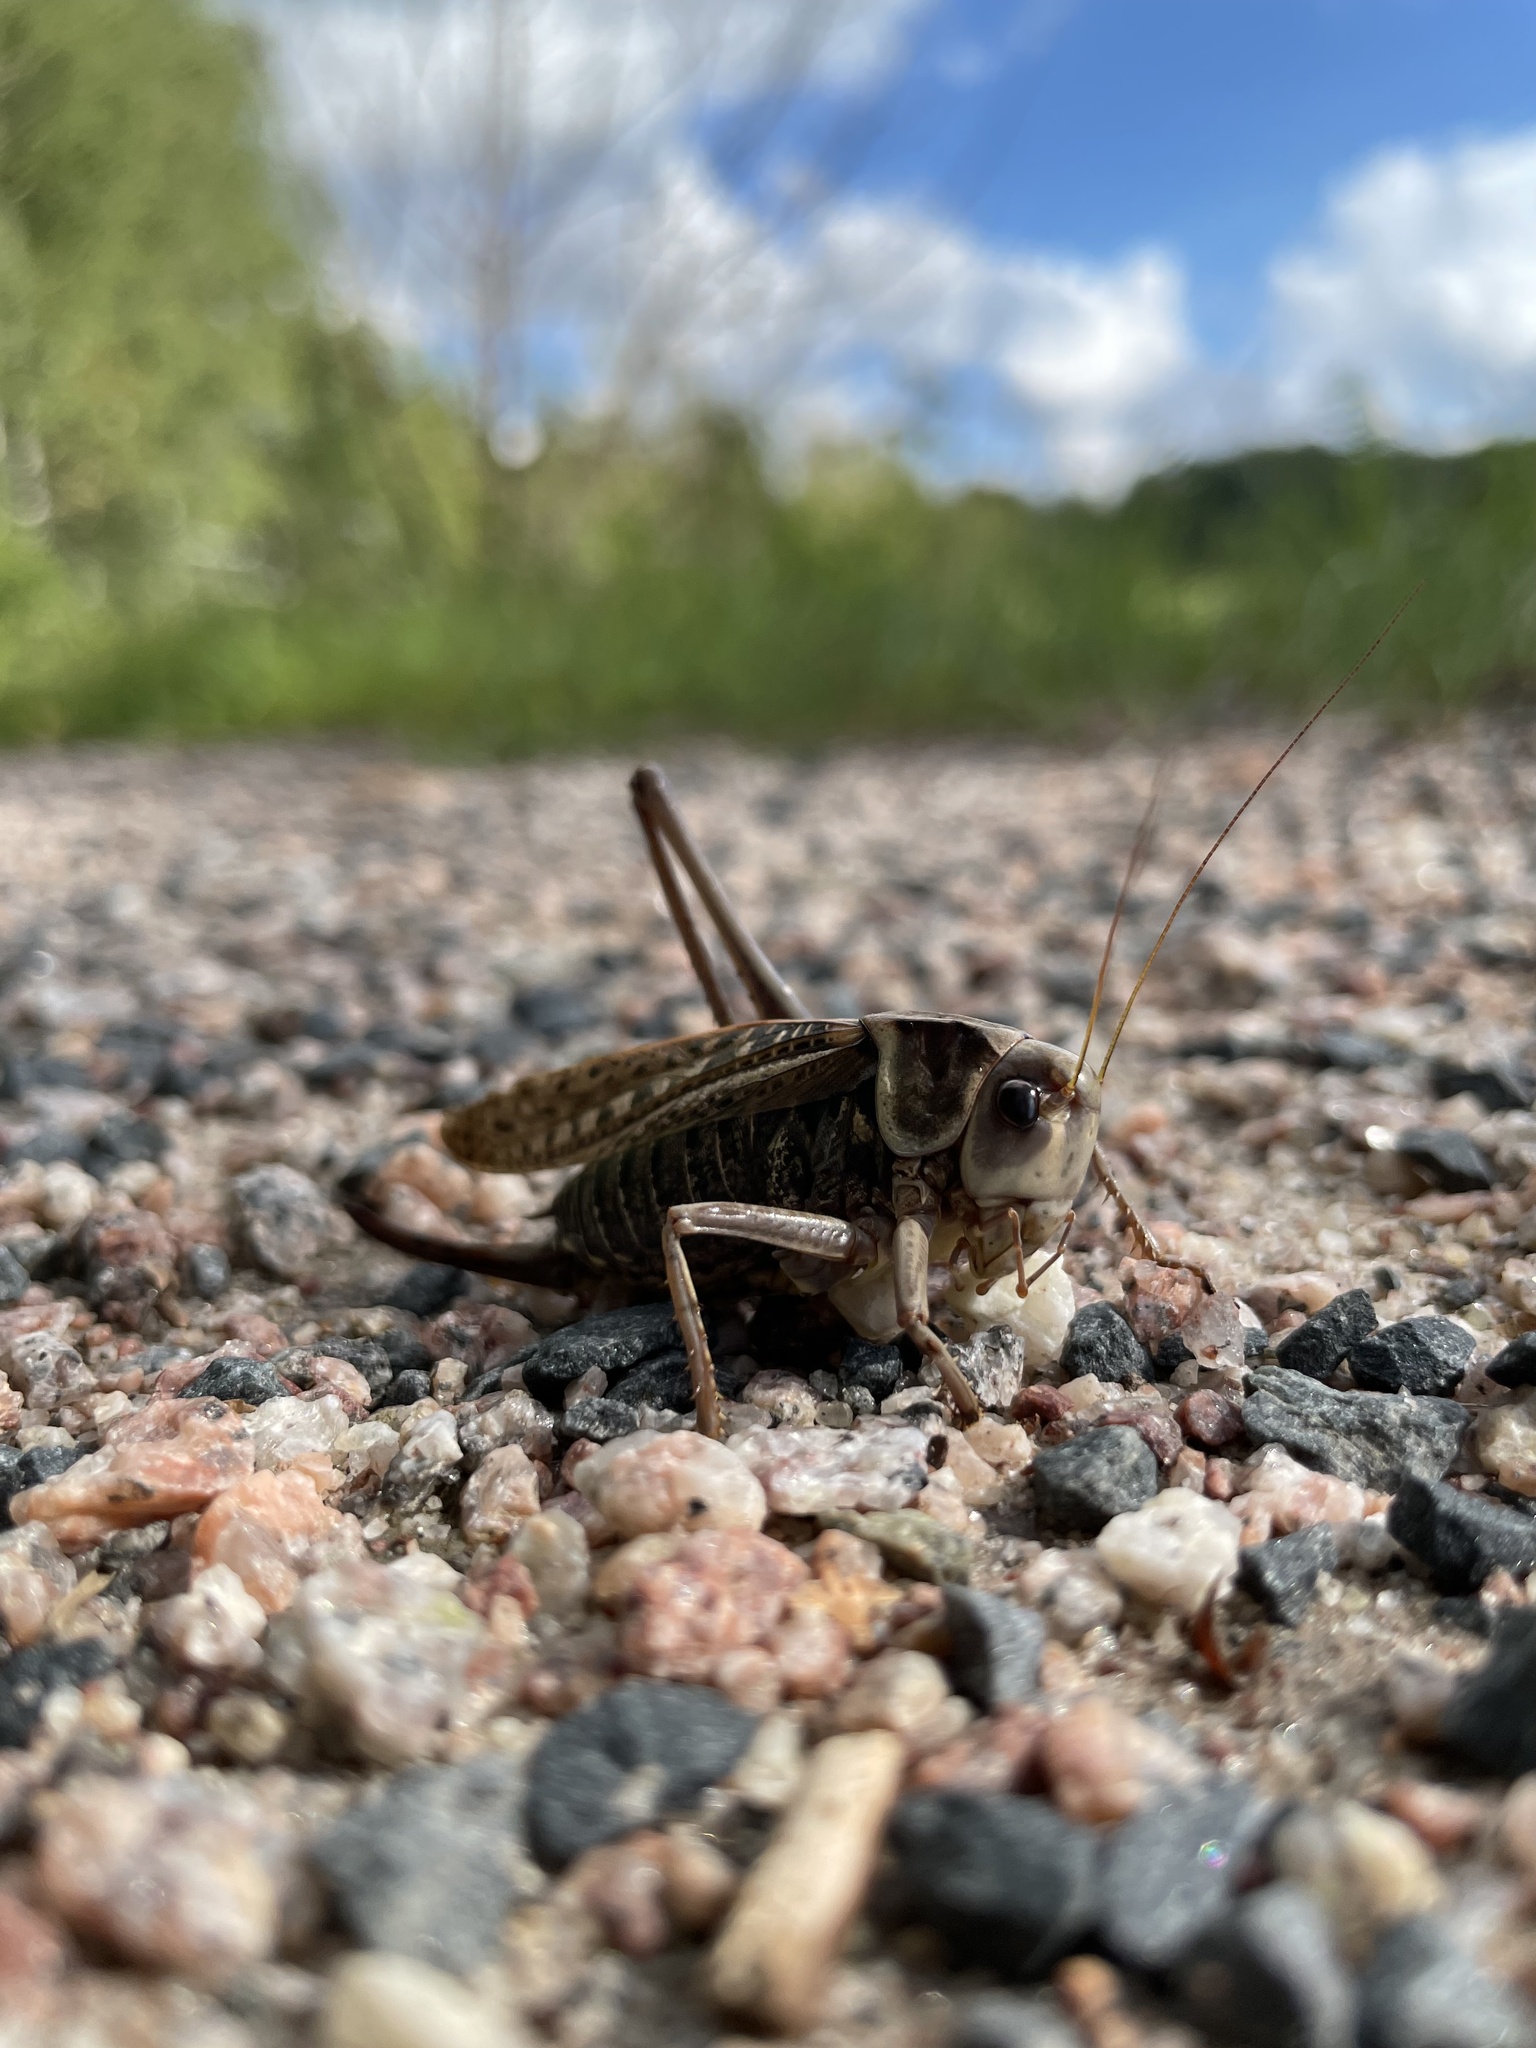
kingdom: Animalia
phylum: Arthropoda
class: Insecta
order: Orthoptera
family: Tettigoniidae
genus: Decticus
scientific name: Decticus verrucivorus
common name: Wart-biter
